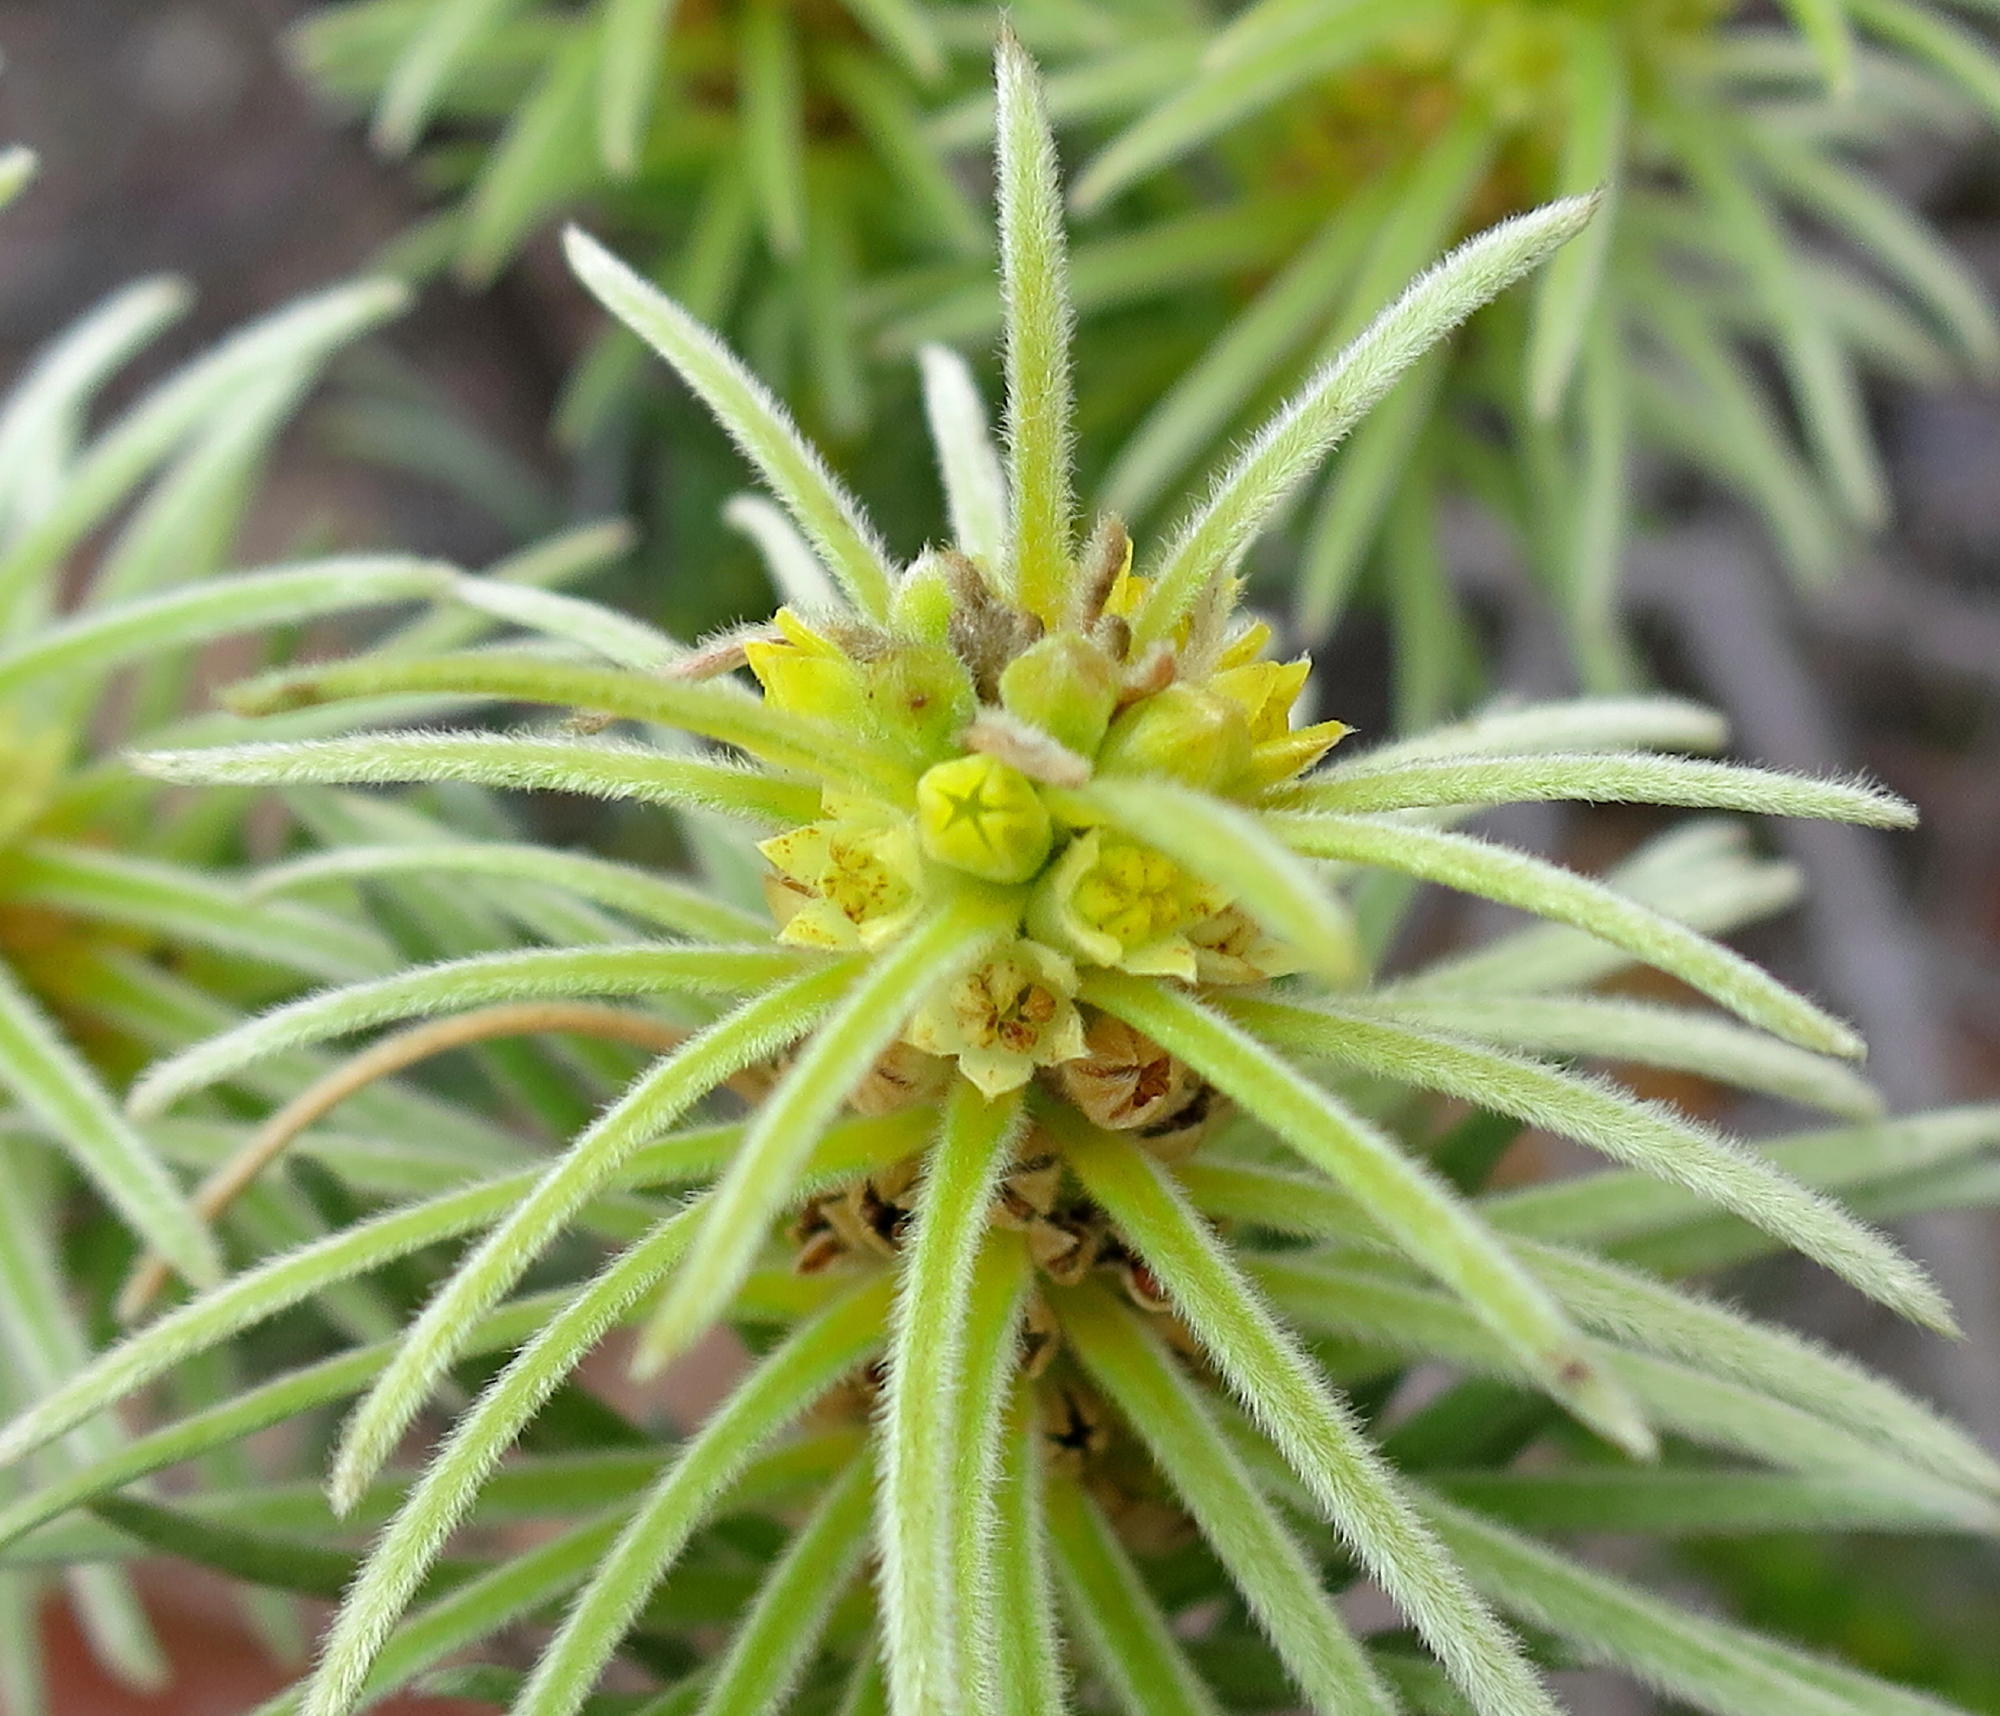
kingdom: Plantae
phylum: Tracheophyta
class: Magnoliopsida
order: Rosales
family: Rhamnaceae
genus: Phylica
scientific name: Phylica velutina
